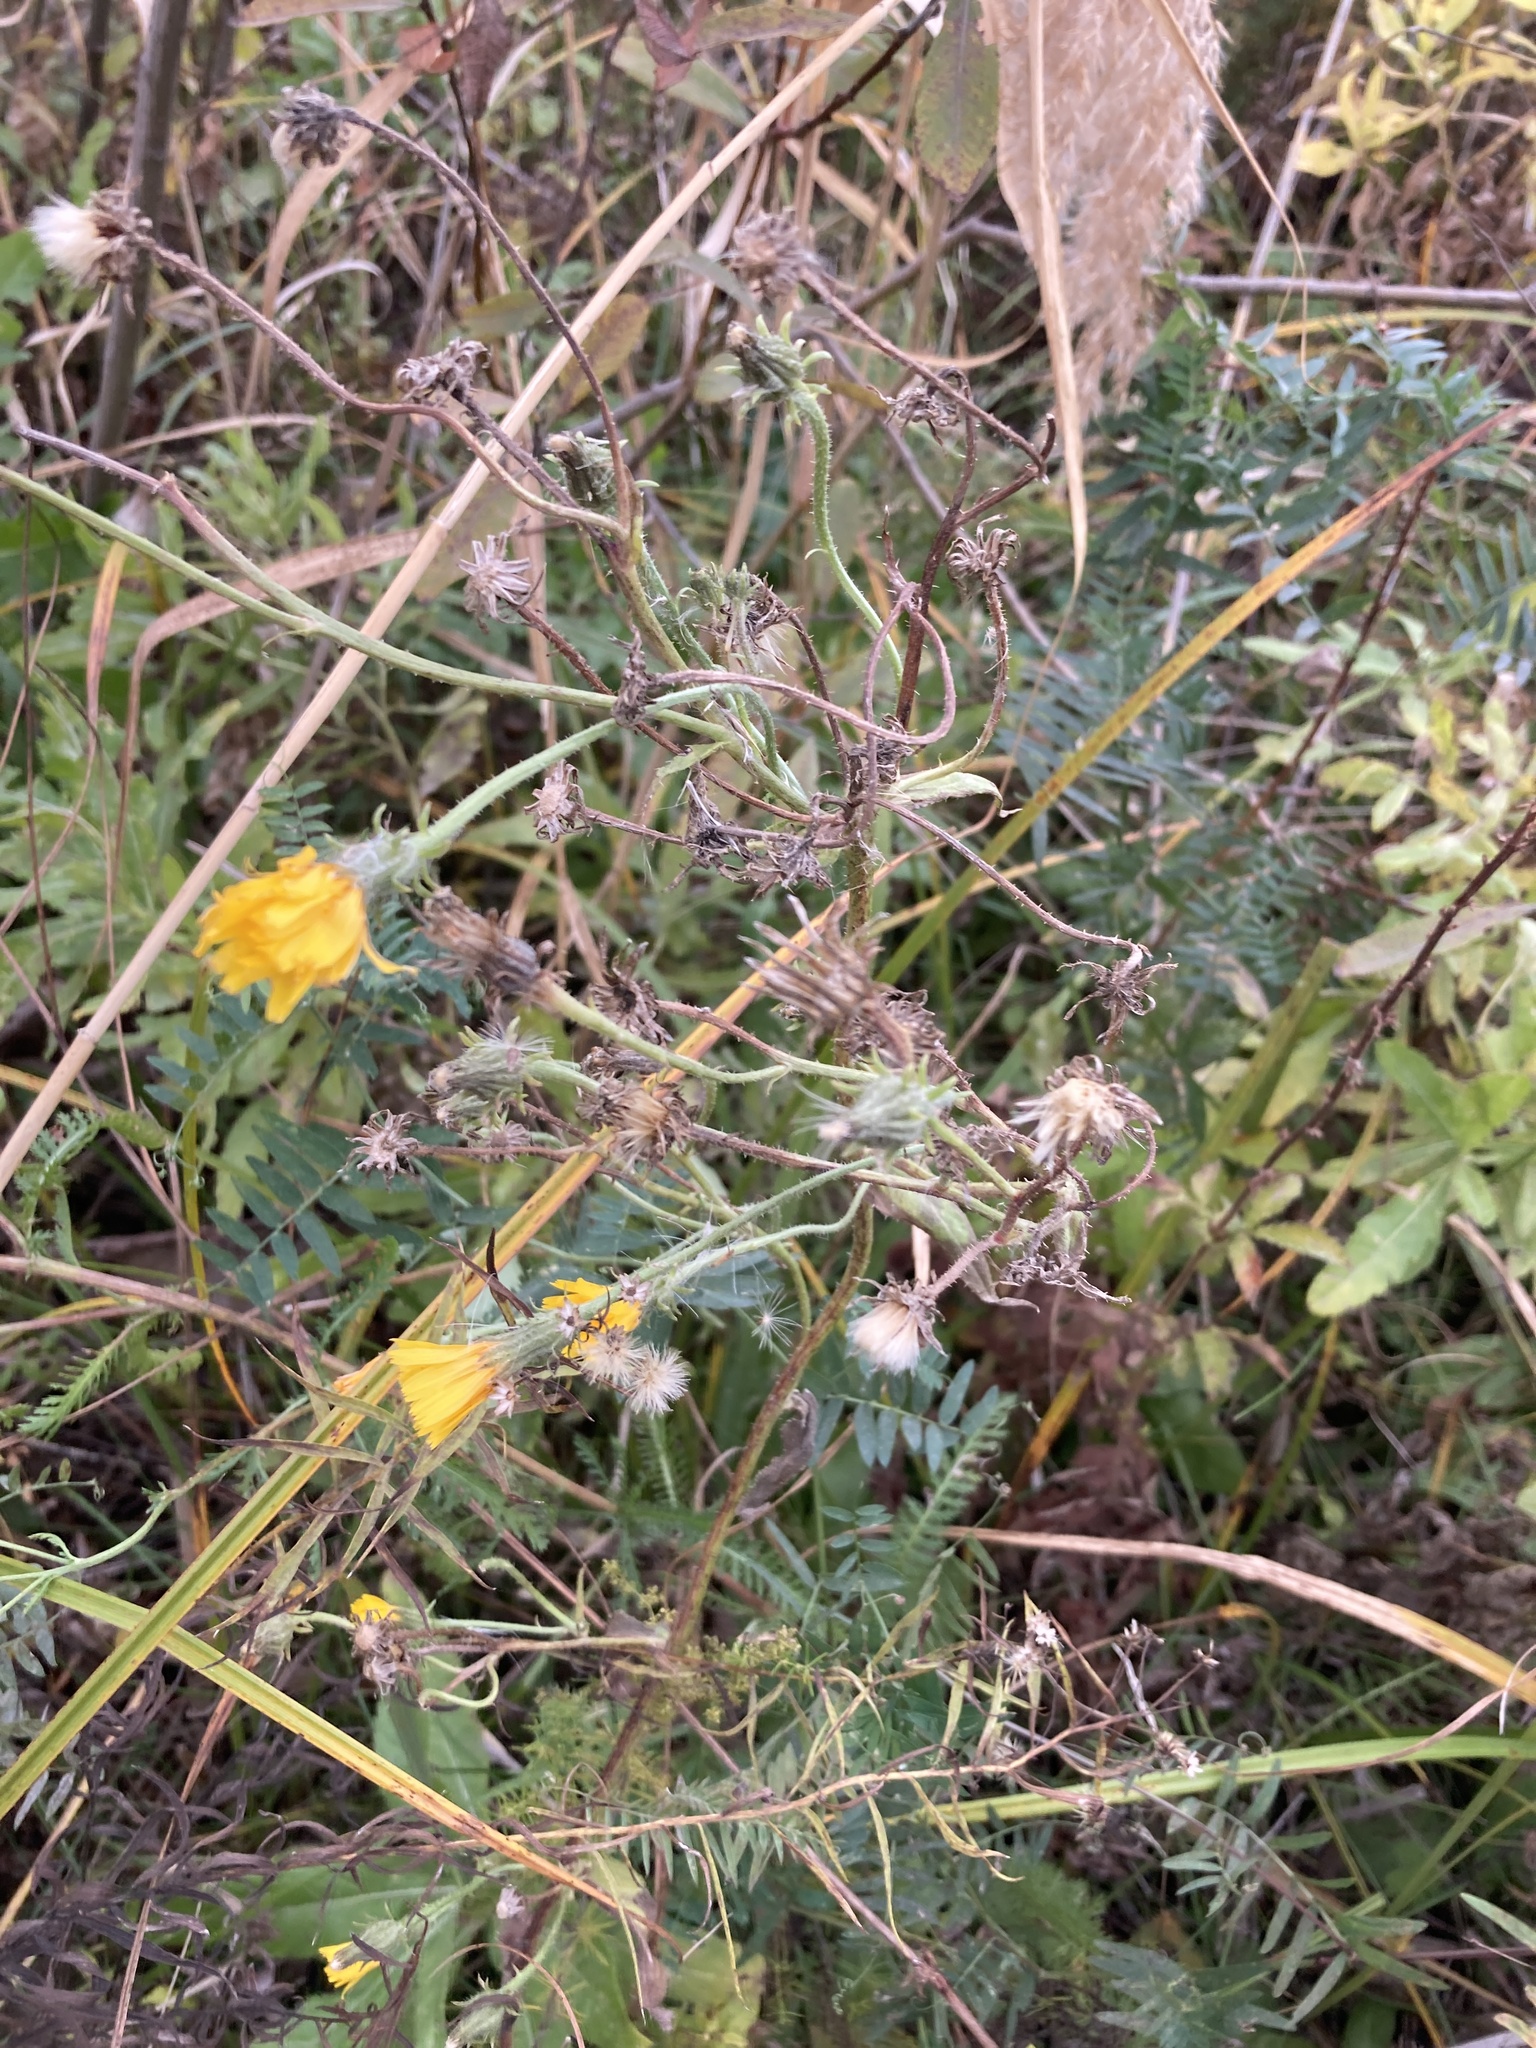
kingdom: Plantae
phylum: Tracheophyta
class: Magnoliopsida
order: Asterales
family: Asteraceae
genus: Picris
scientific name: Picris hieracioides
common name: Hawkweed oxtongue
